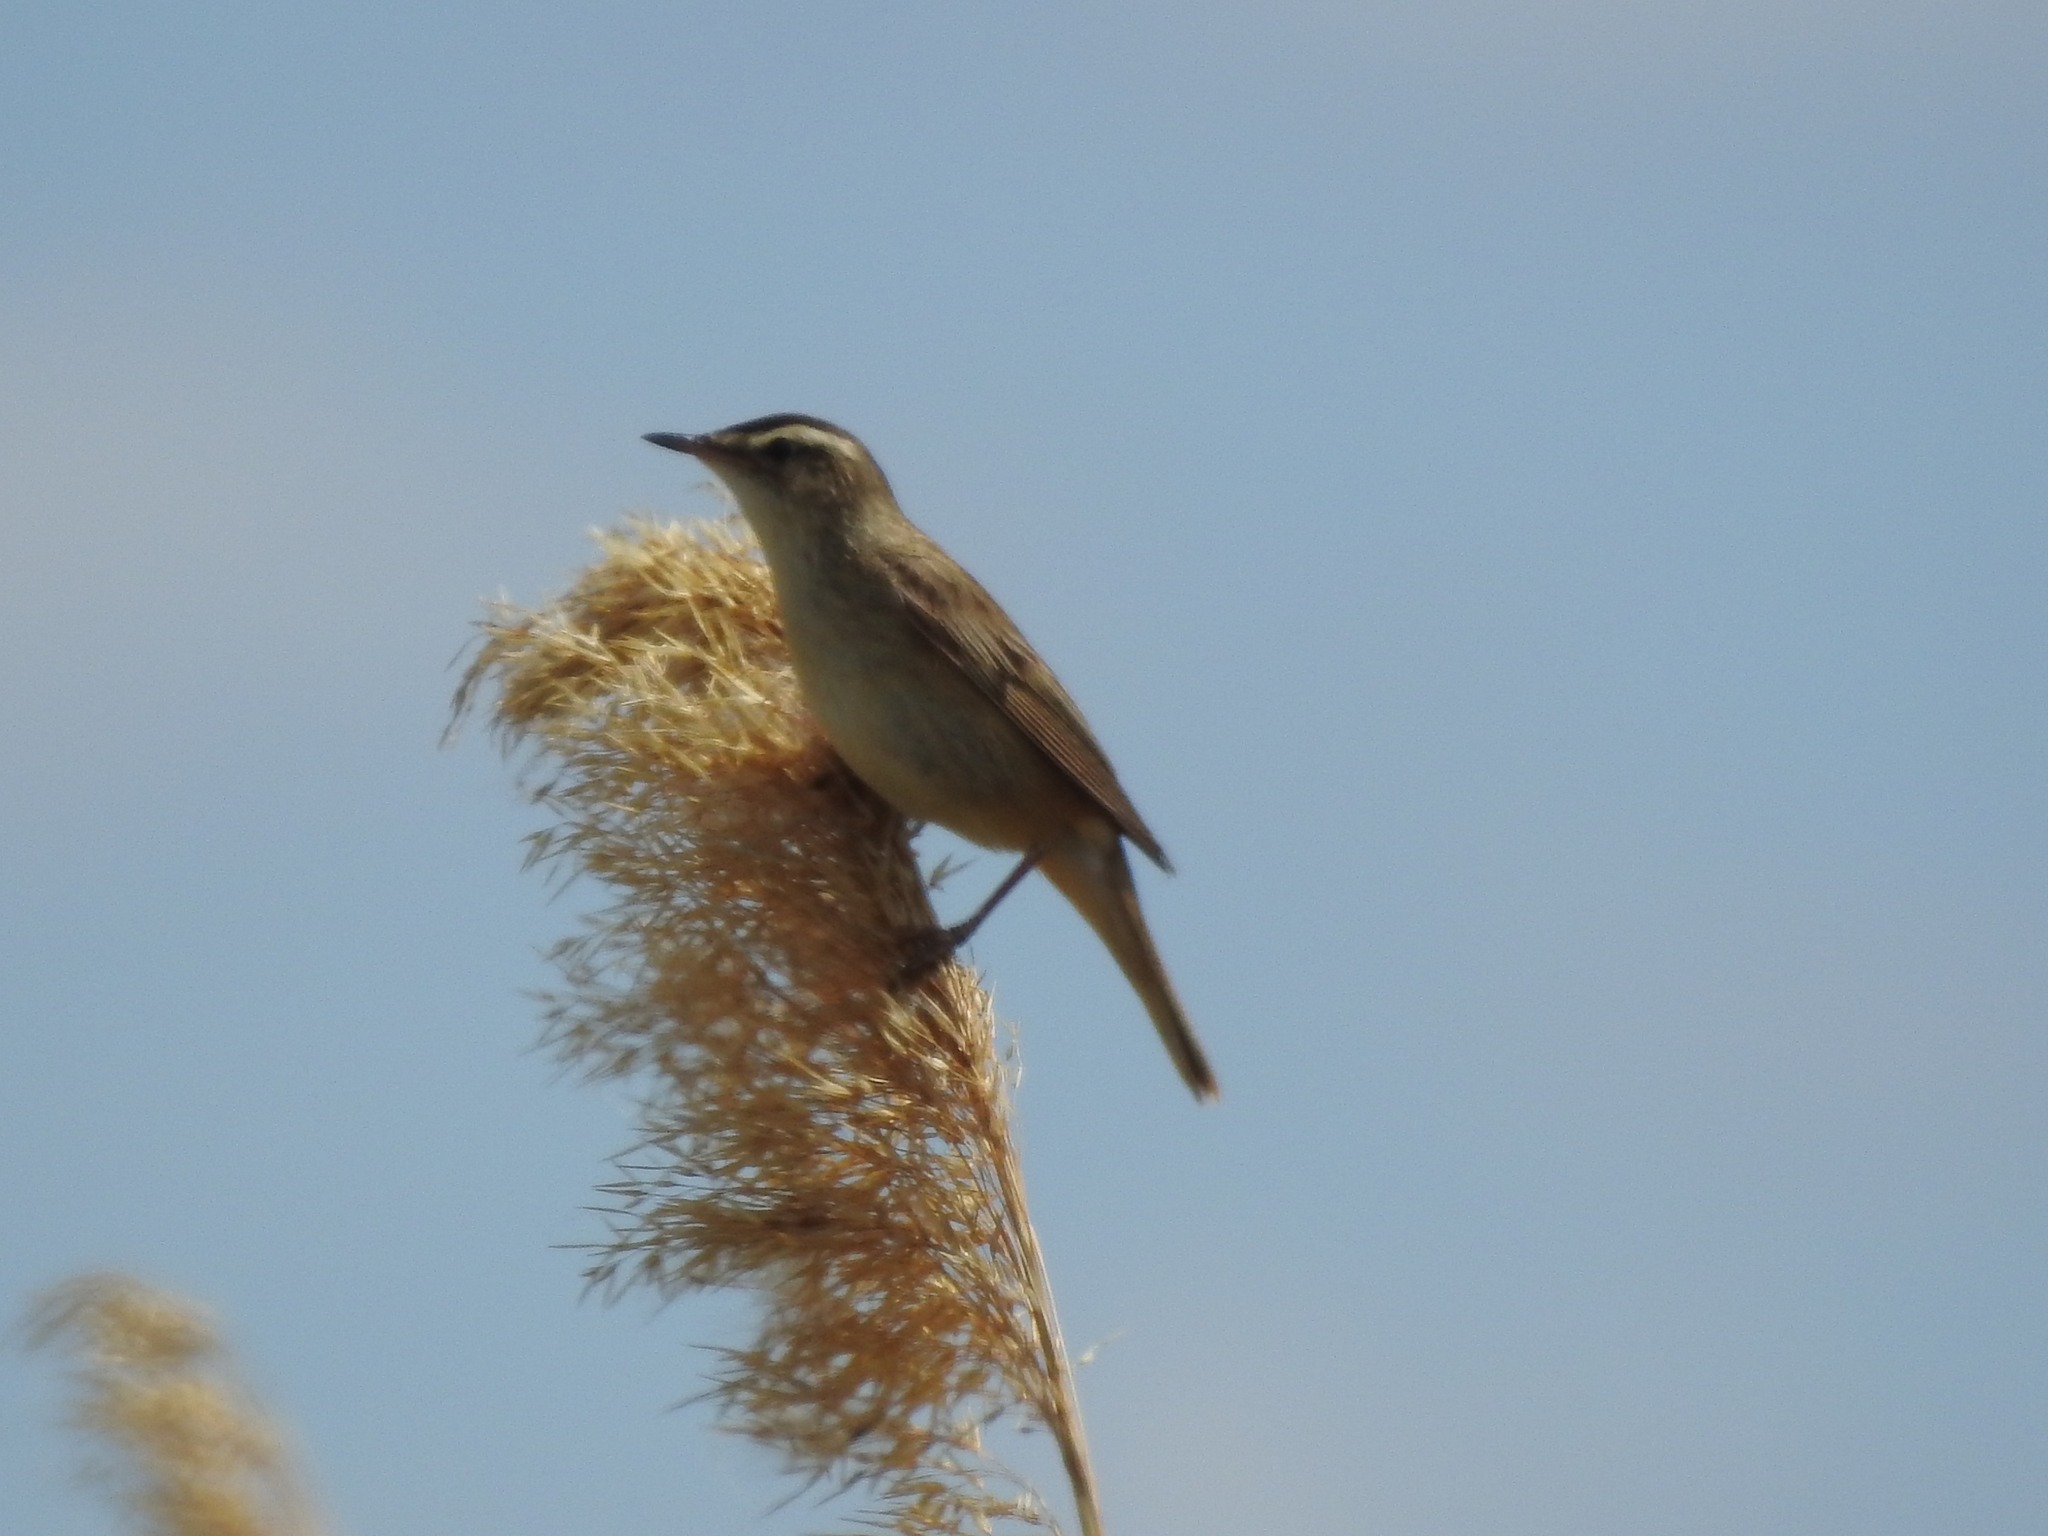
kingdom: Animalia
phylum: Chordata
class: Aves
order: Passeriformes
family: Acrocephalidae
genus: Acrocephalus
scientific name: Acrocephalus schoenobaenus
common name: Sedge warbler
